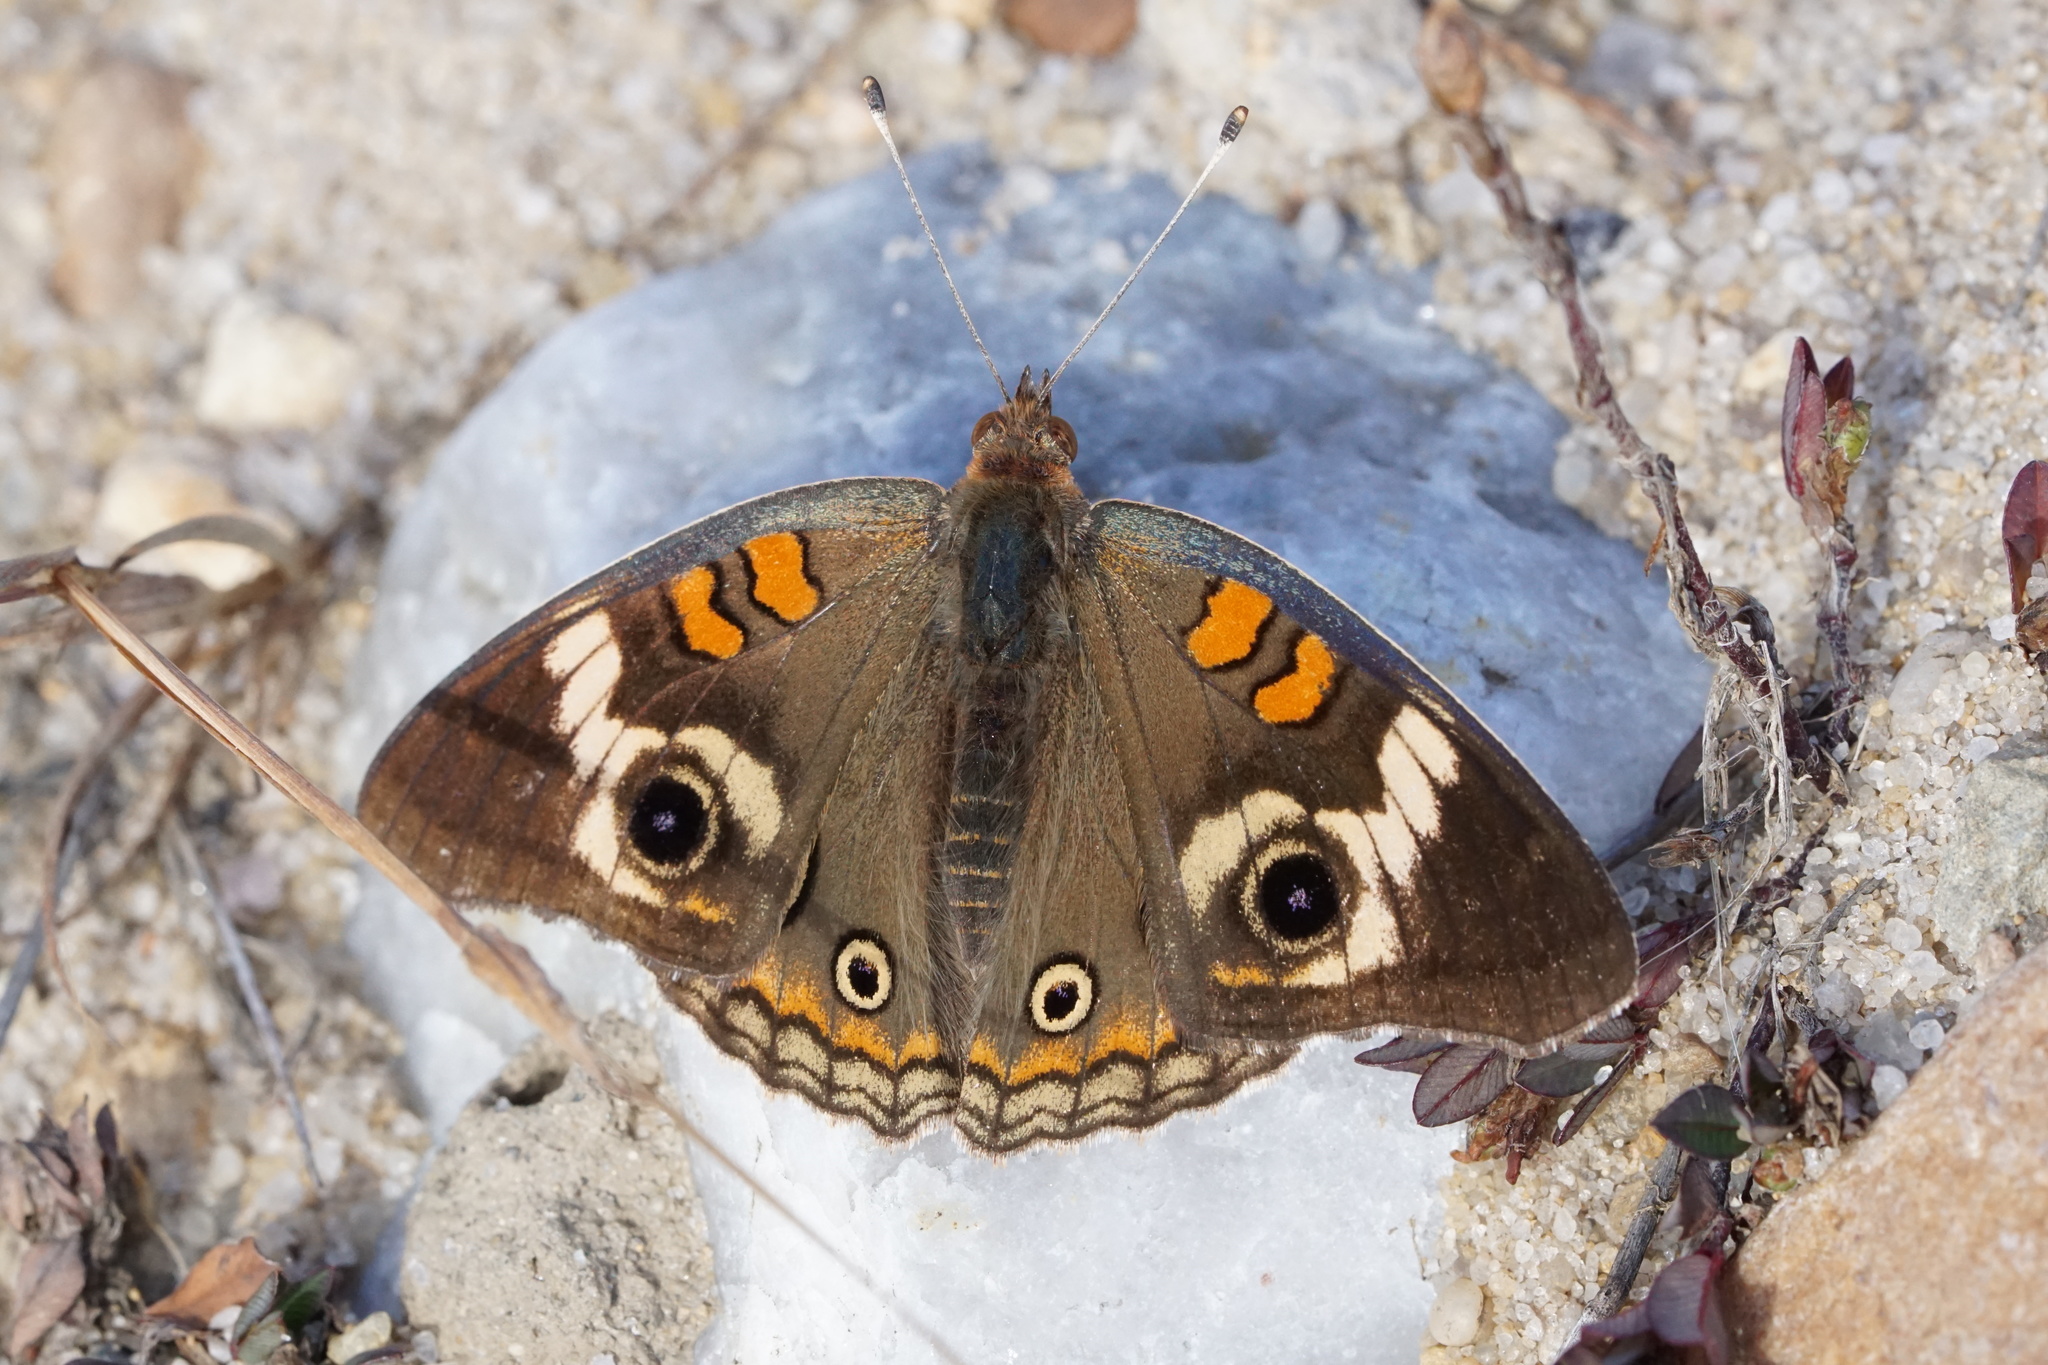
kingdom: Animalia
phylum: Arthropoda
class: Insecta
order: Lepidoptera
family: Nymphalidae
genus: Junonia
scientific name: Junonia coenia
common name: Common buckeye
